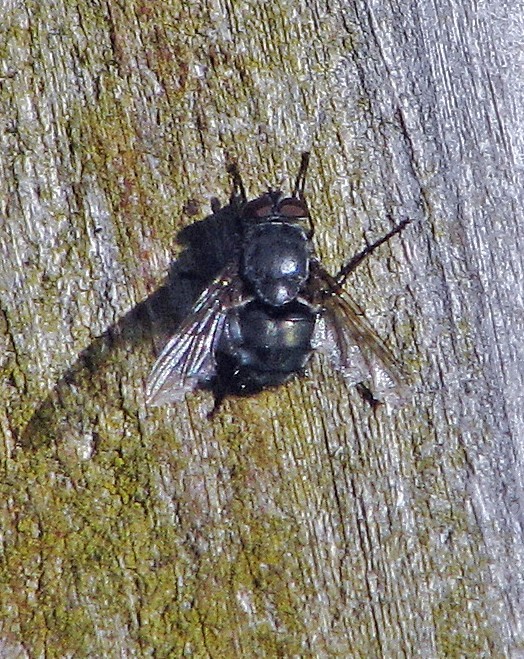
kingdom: Animalia
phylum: Arthropoda
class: Insecta
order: Diptera
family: Calliphoridae
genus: Calliphora
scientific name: Calliphora vicina
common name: Common blow flie
